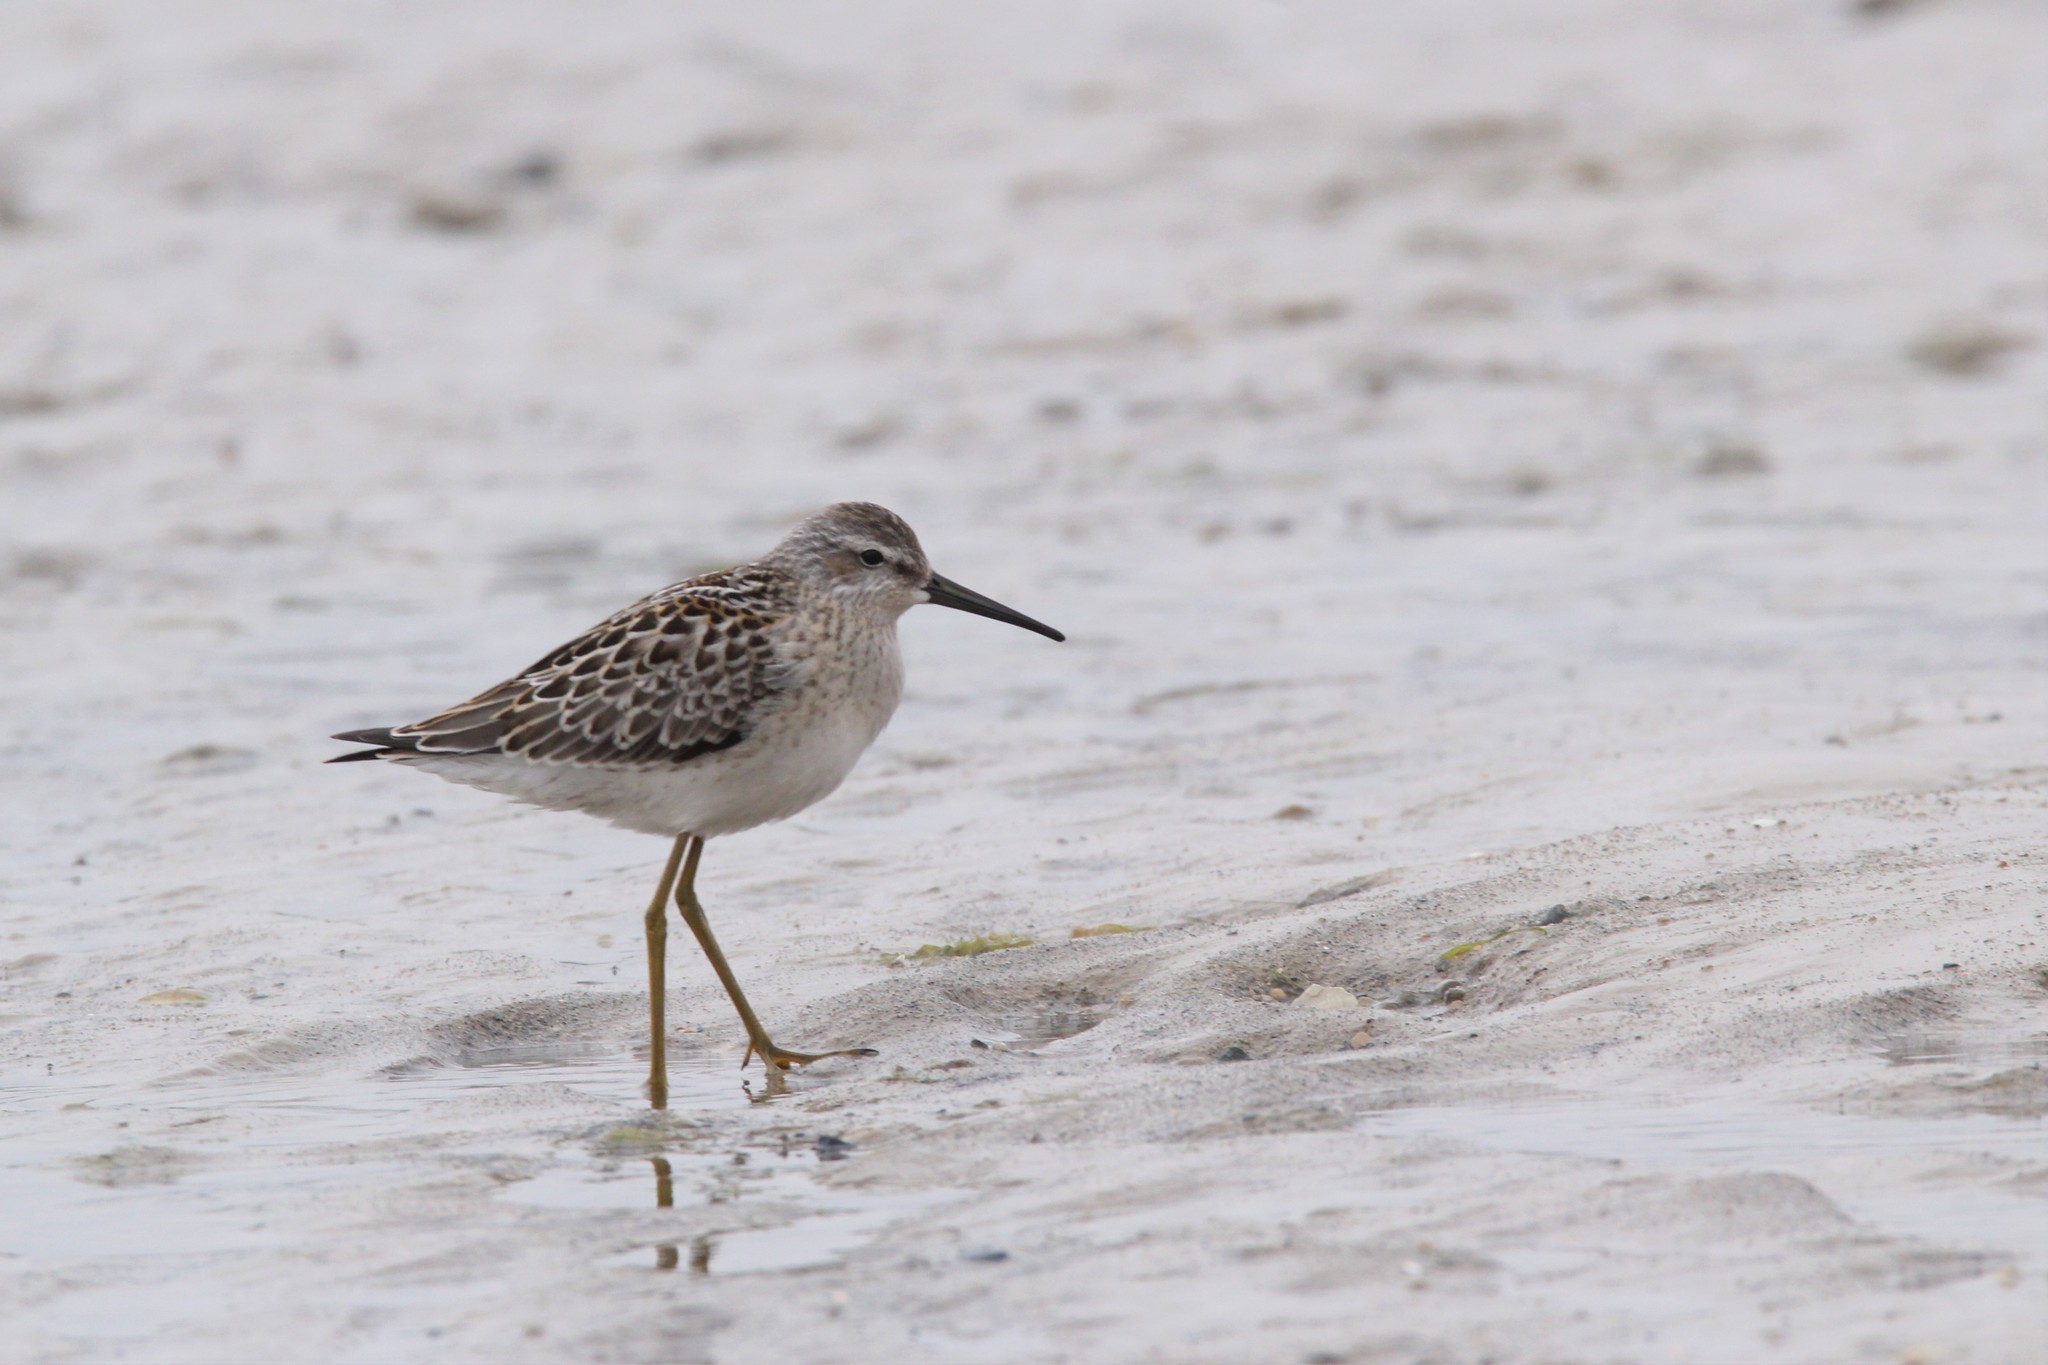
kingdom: Animalia
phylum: Chordata
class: Aves
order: Charadriiformes
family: Scolopacidae
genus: Calidris
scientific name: Calidris himantopus
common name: Stilt sandpiper
